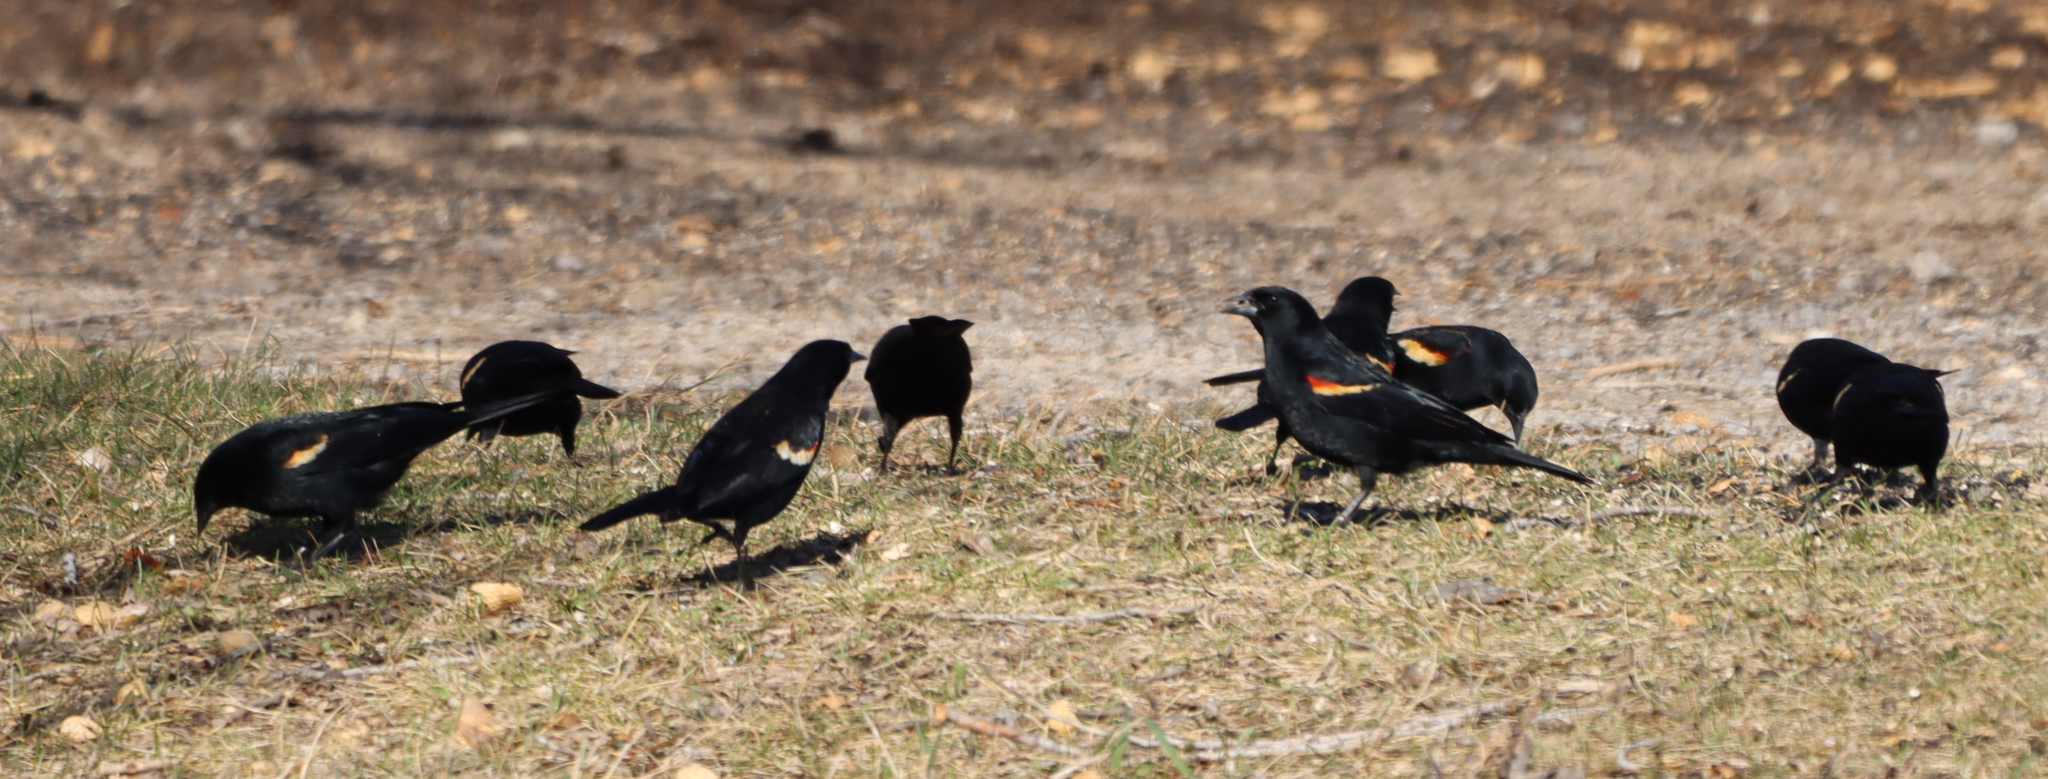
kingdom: Animalia
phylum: Chordata
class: Aves
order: Passeriformes
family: Icteridae
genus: Agelaius
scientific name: Agelaius phoeniceus
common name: Red-winged blackbird
